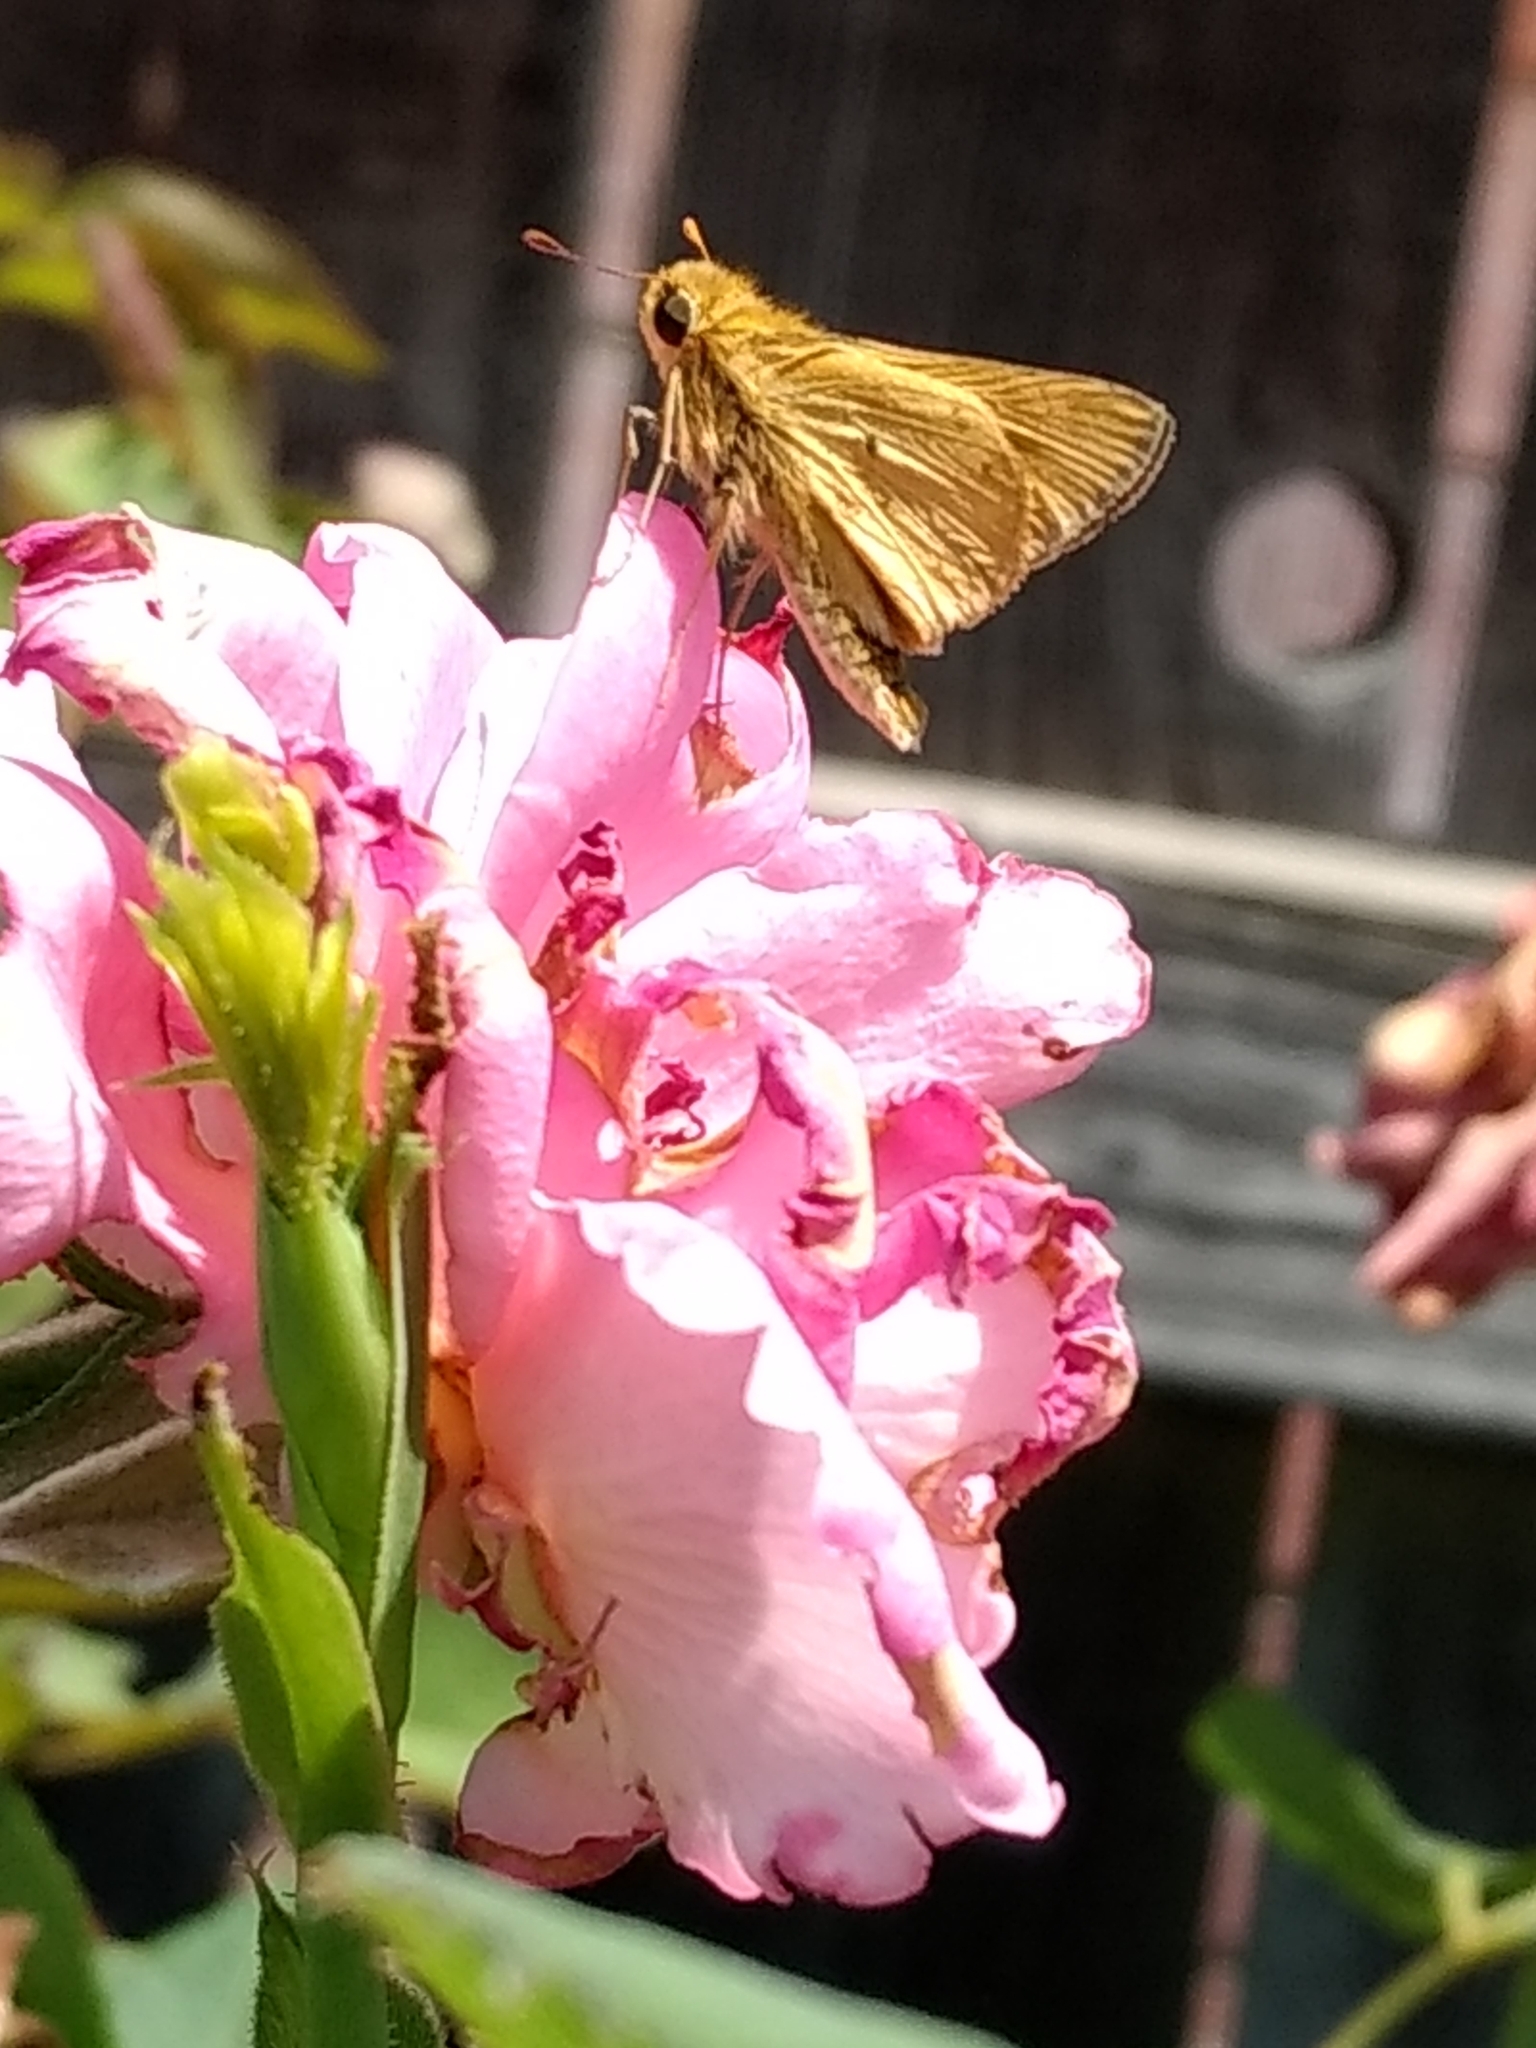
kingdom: Animalia
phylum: Arthropoda
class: Insecta
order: Lepidoptera
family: Hesperiidae
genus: Hylephila
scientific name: Hylephila phyleus
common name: Fiery skipper
